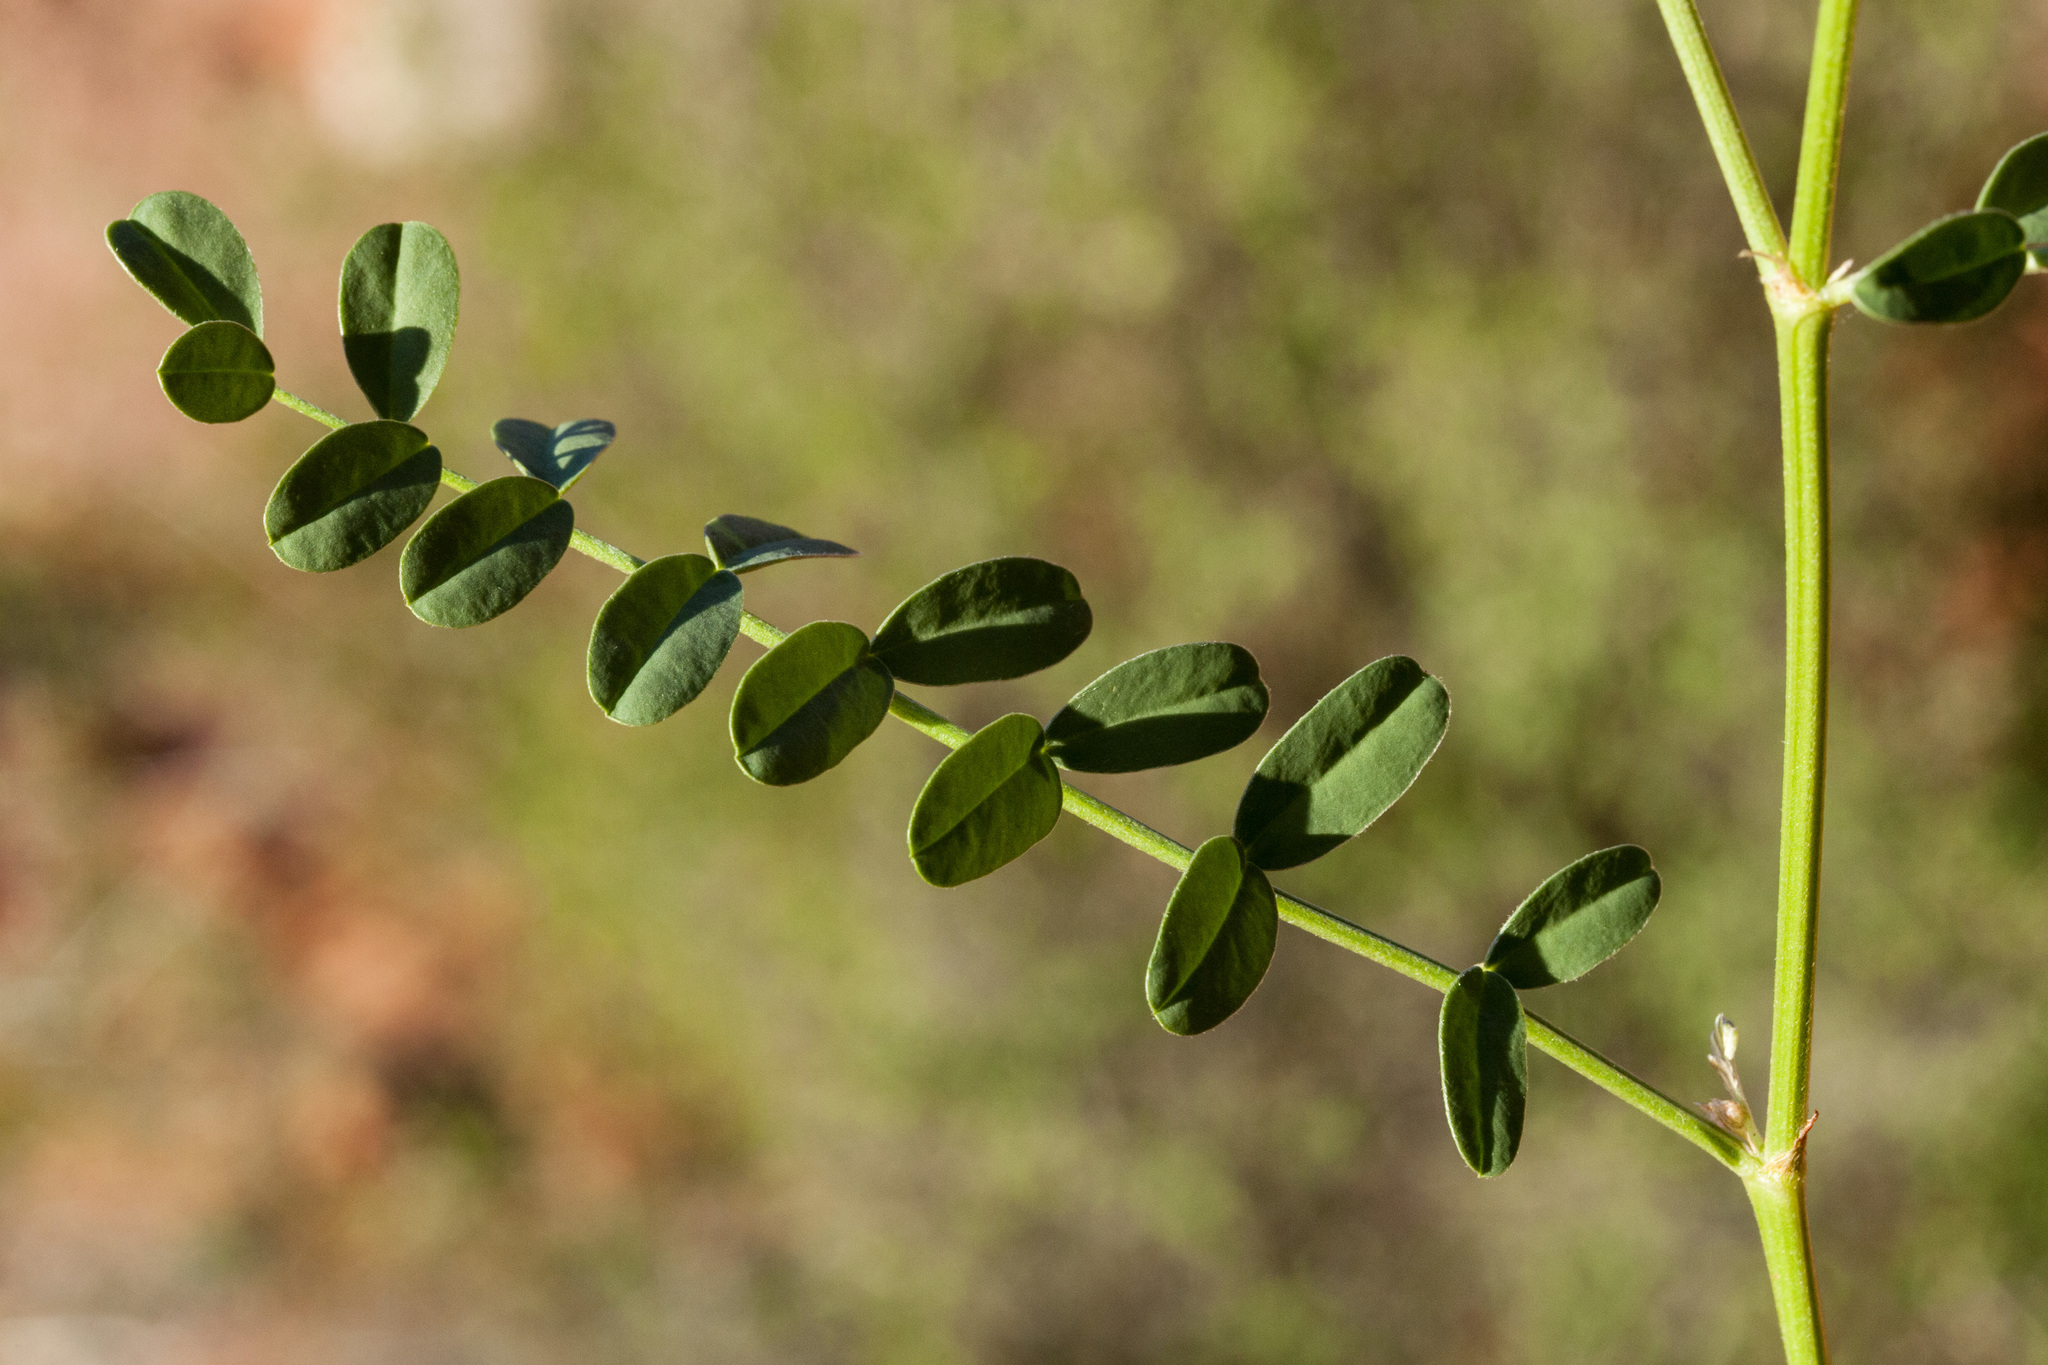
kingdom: Plantae
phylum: Tracheophyta
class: Magnoliopsida
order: Fabales
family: Fabaceae
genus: Hedysarum
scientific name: Hedysarum boreale
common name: Northern sweet-vetch
